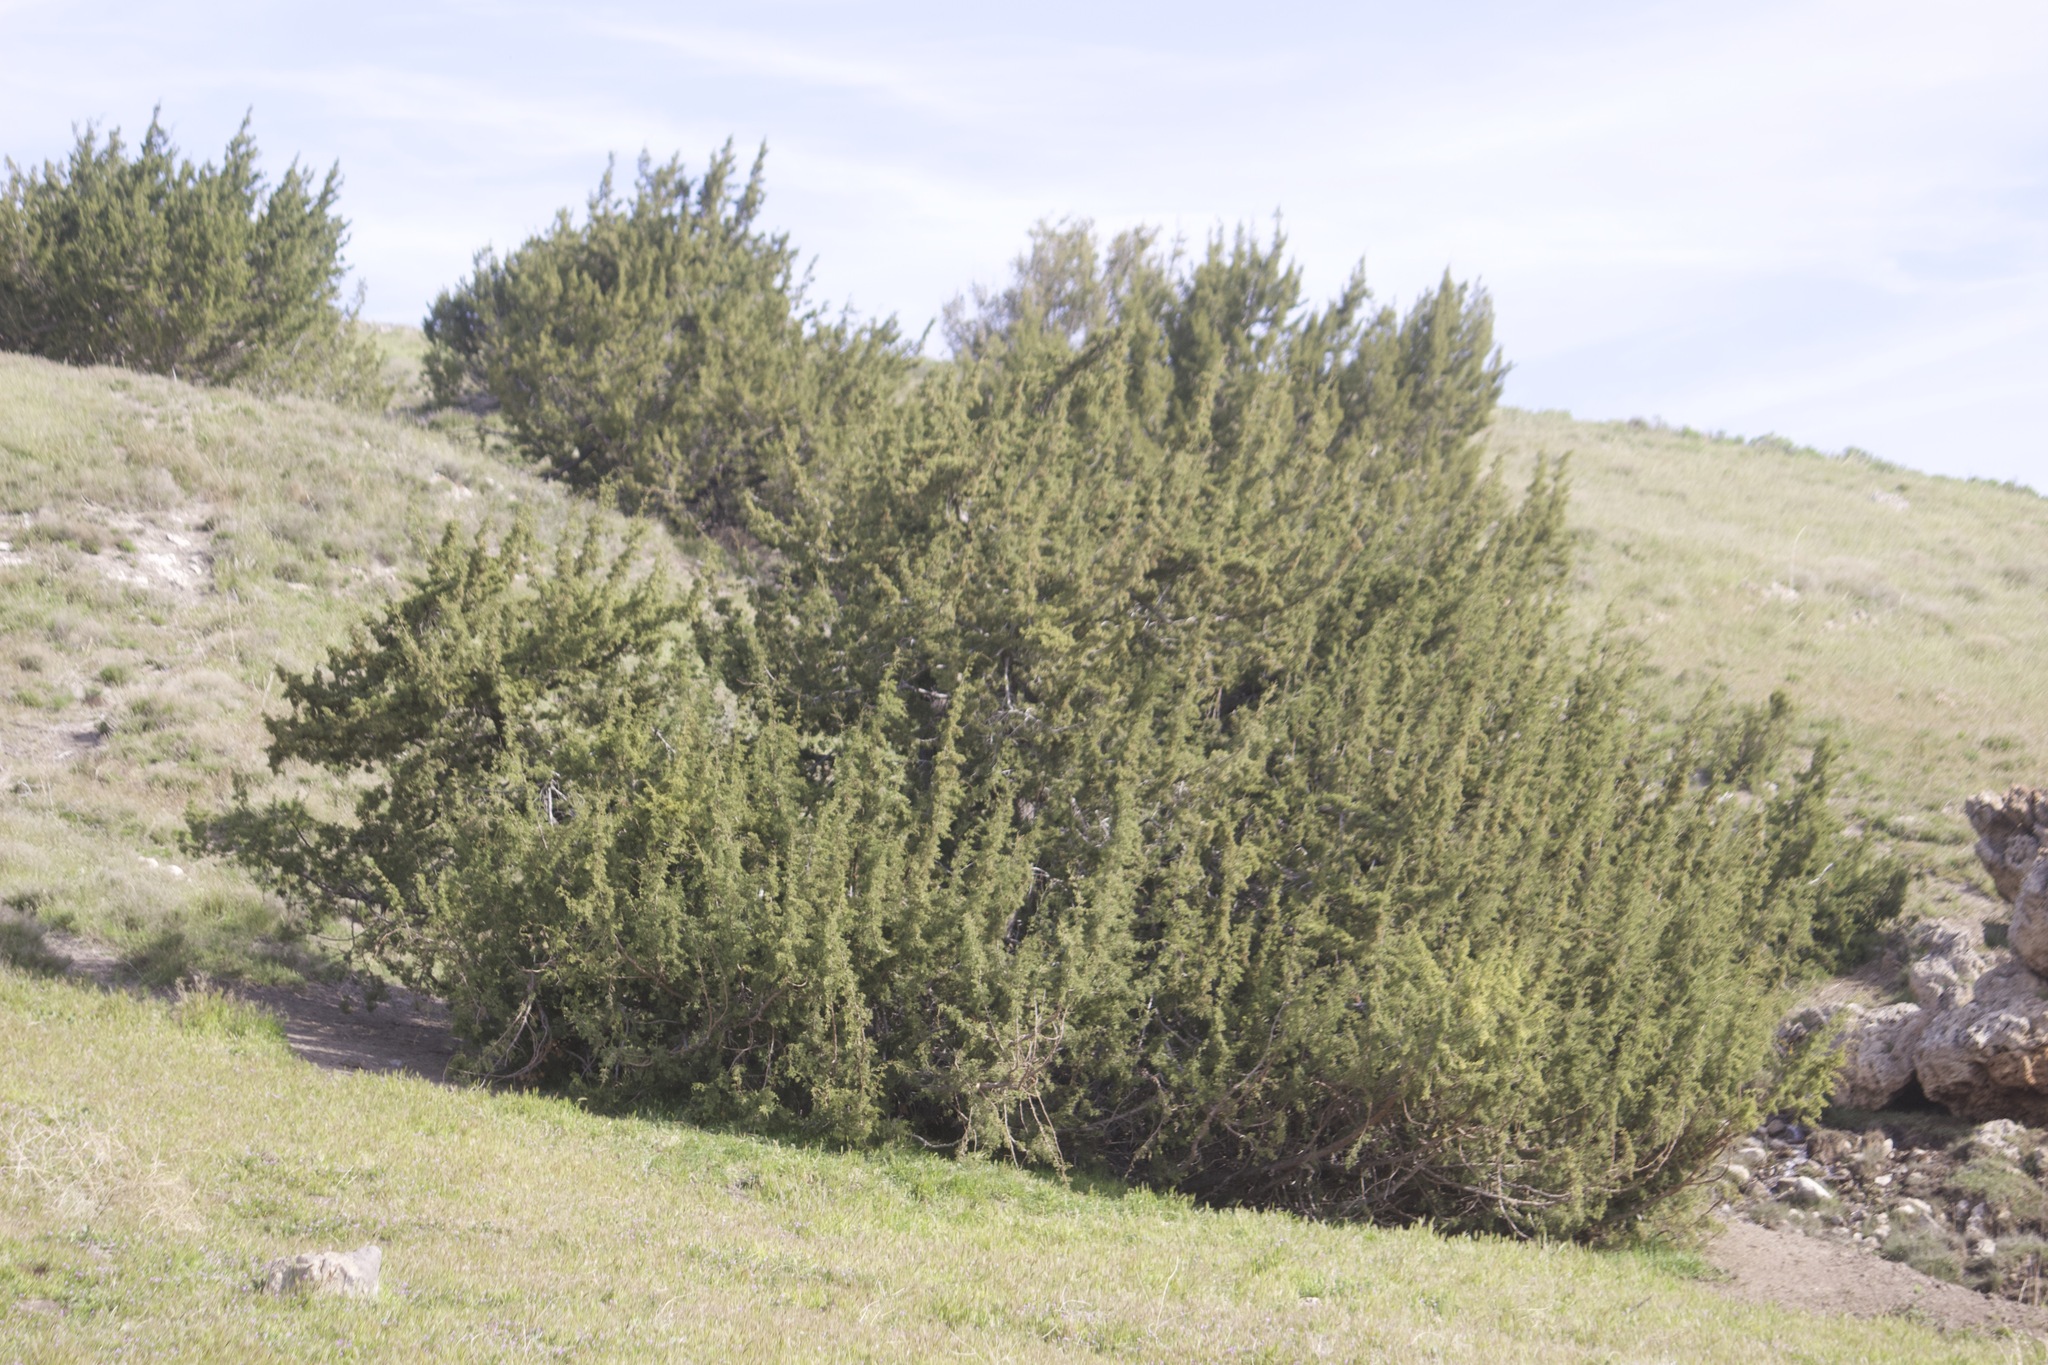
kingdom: Plantae
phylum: Tracheophyta
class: Pinopsida
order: Pinales
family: Cupressaceae
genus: Juniperus
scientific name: Juniperus californica
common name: California juniper
